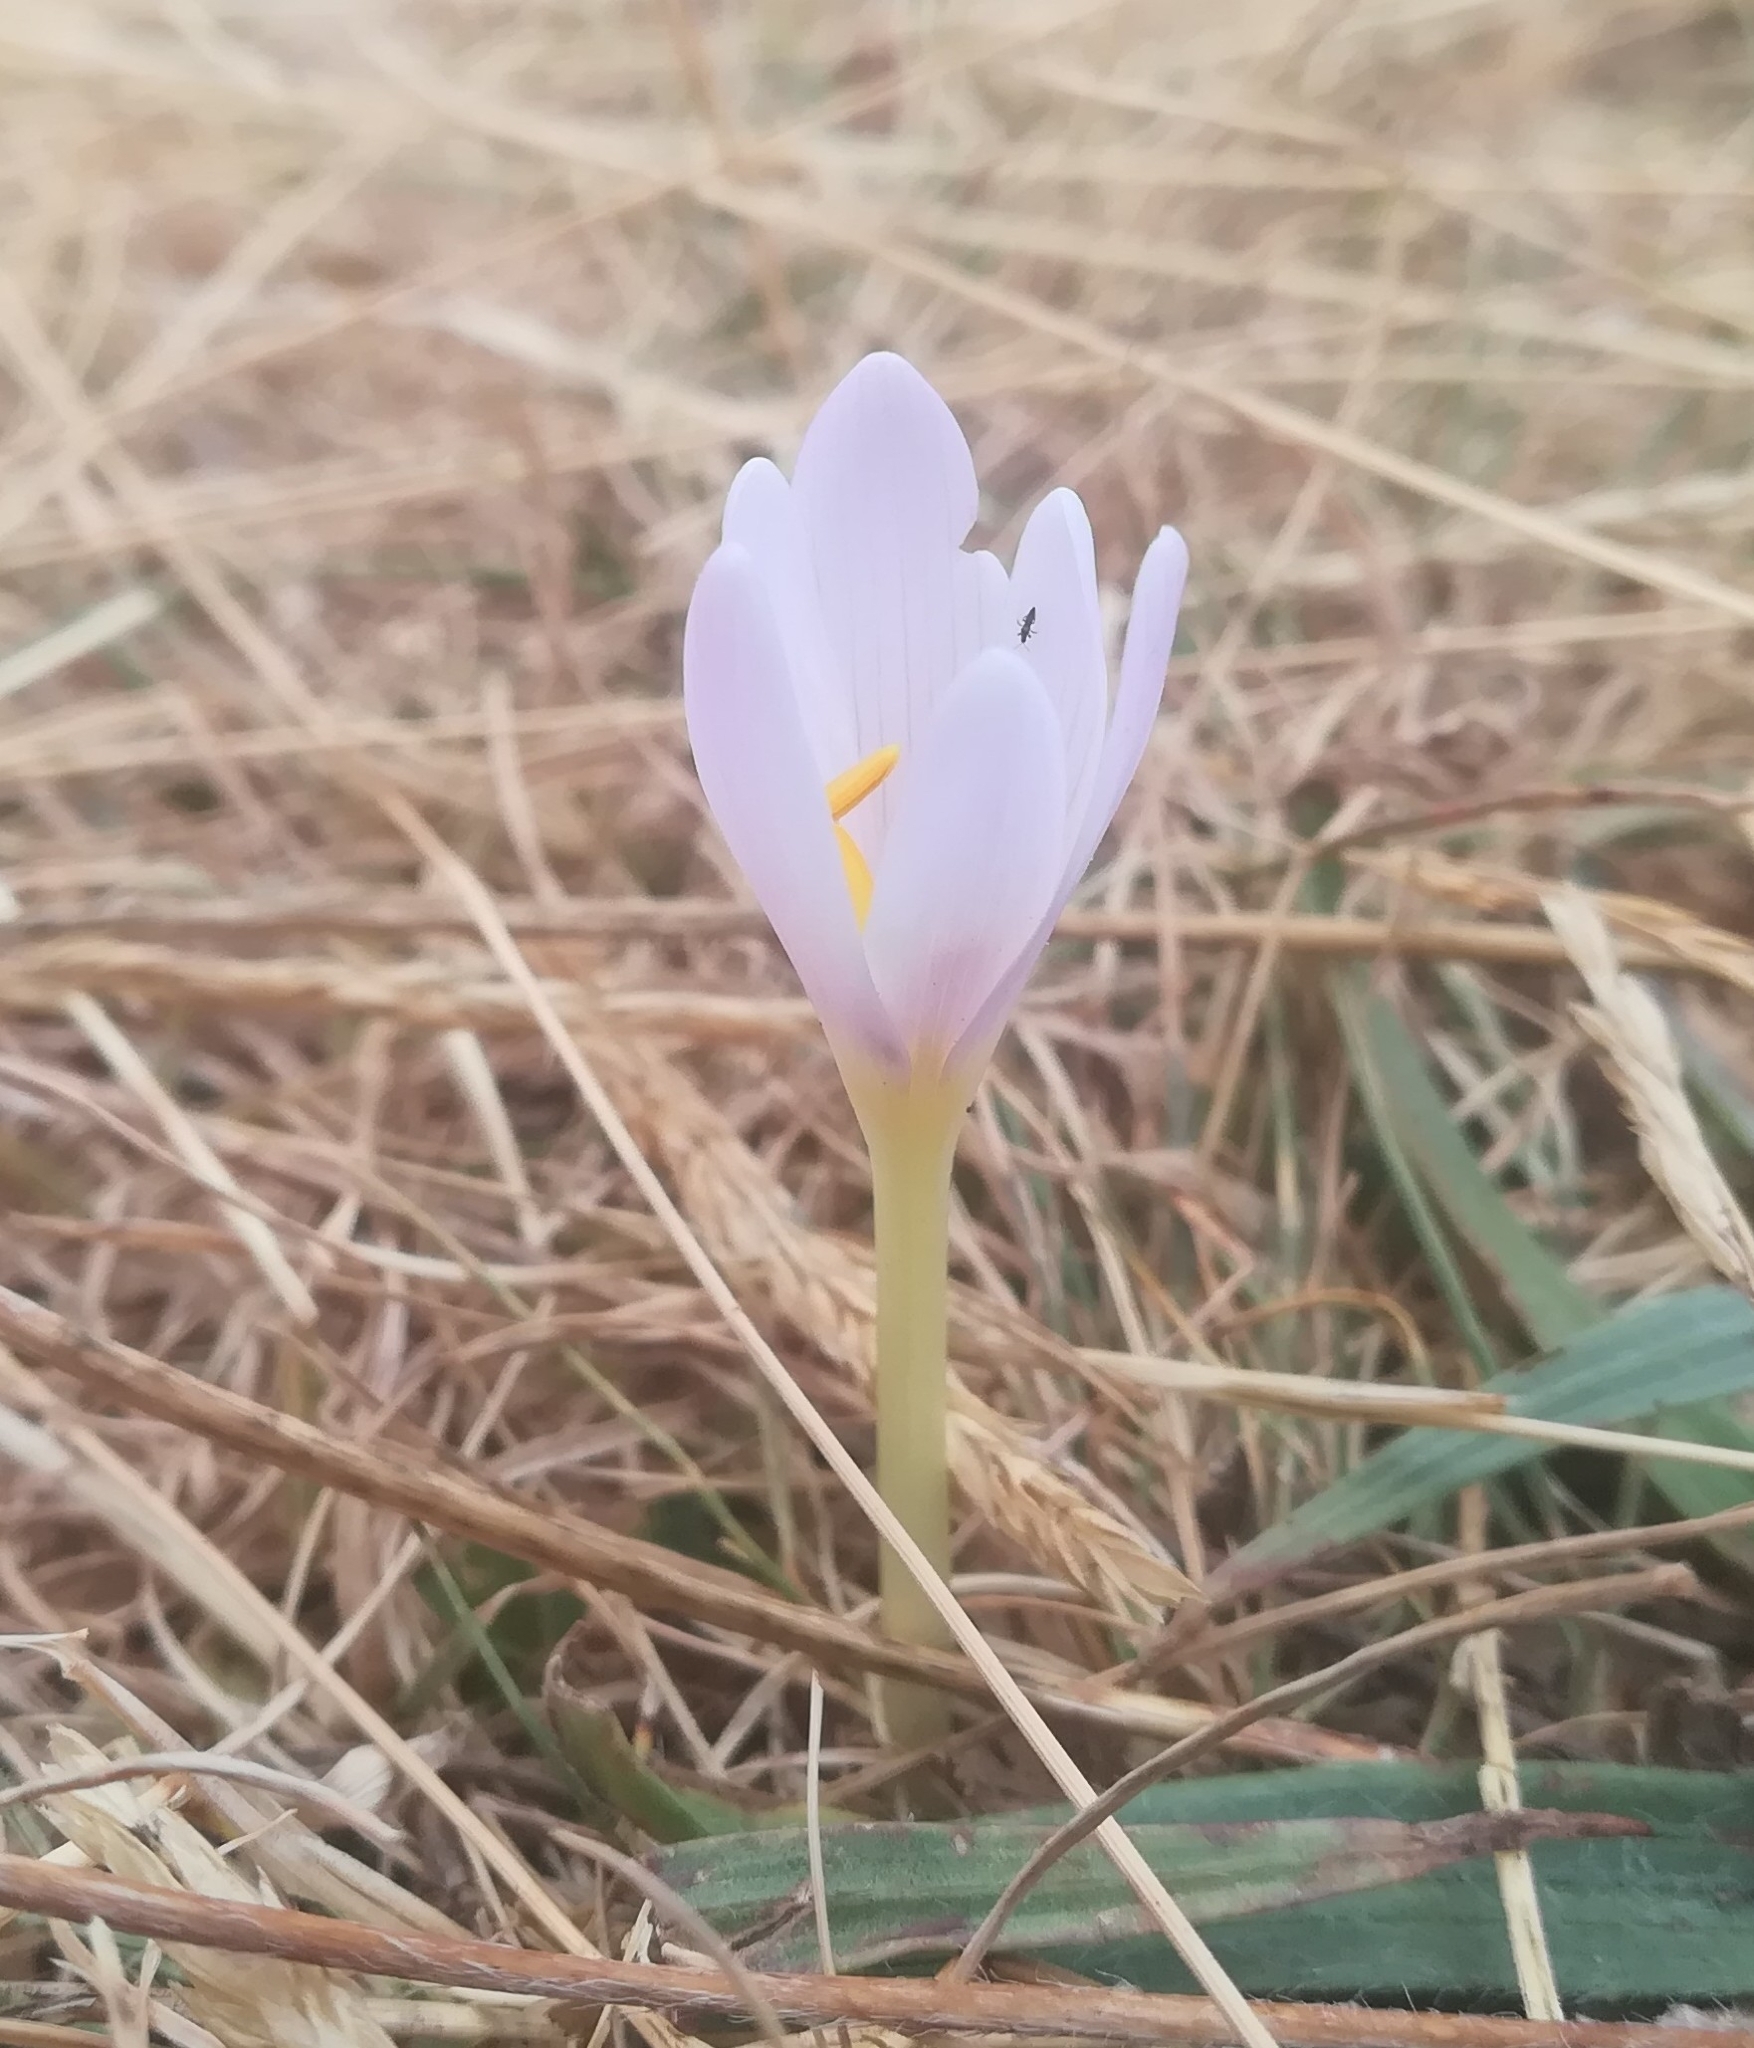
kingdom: Plantae
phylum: Tracheophyta
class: Liliopsida
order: Liliales
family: Colchicaceae
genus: Colchicum
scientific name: Colchicum alpinum
